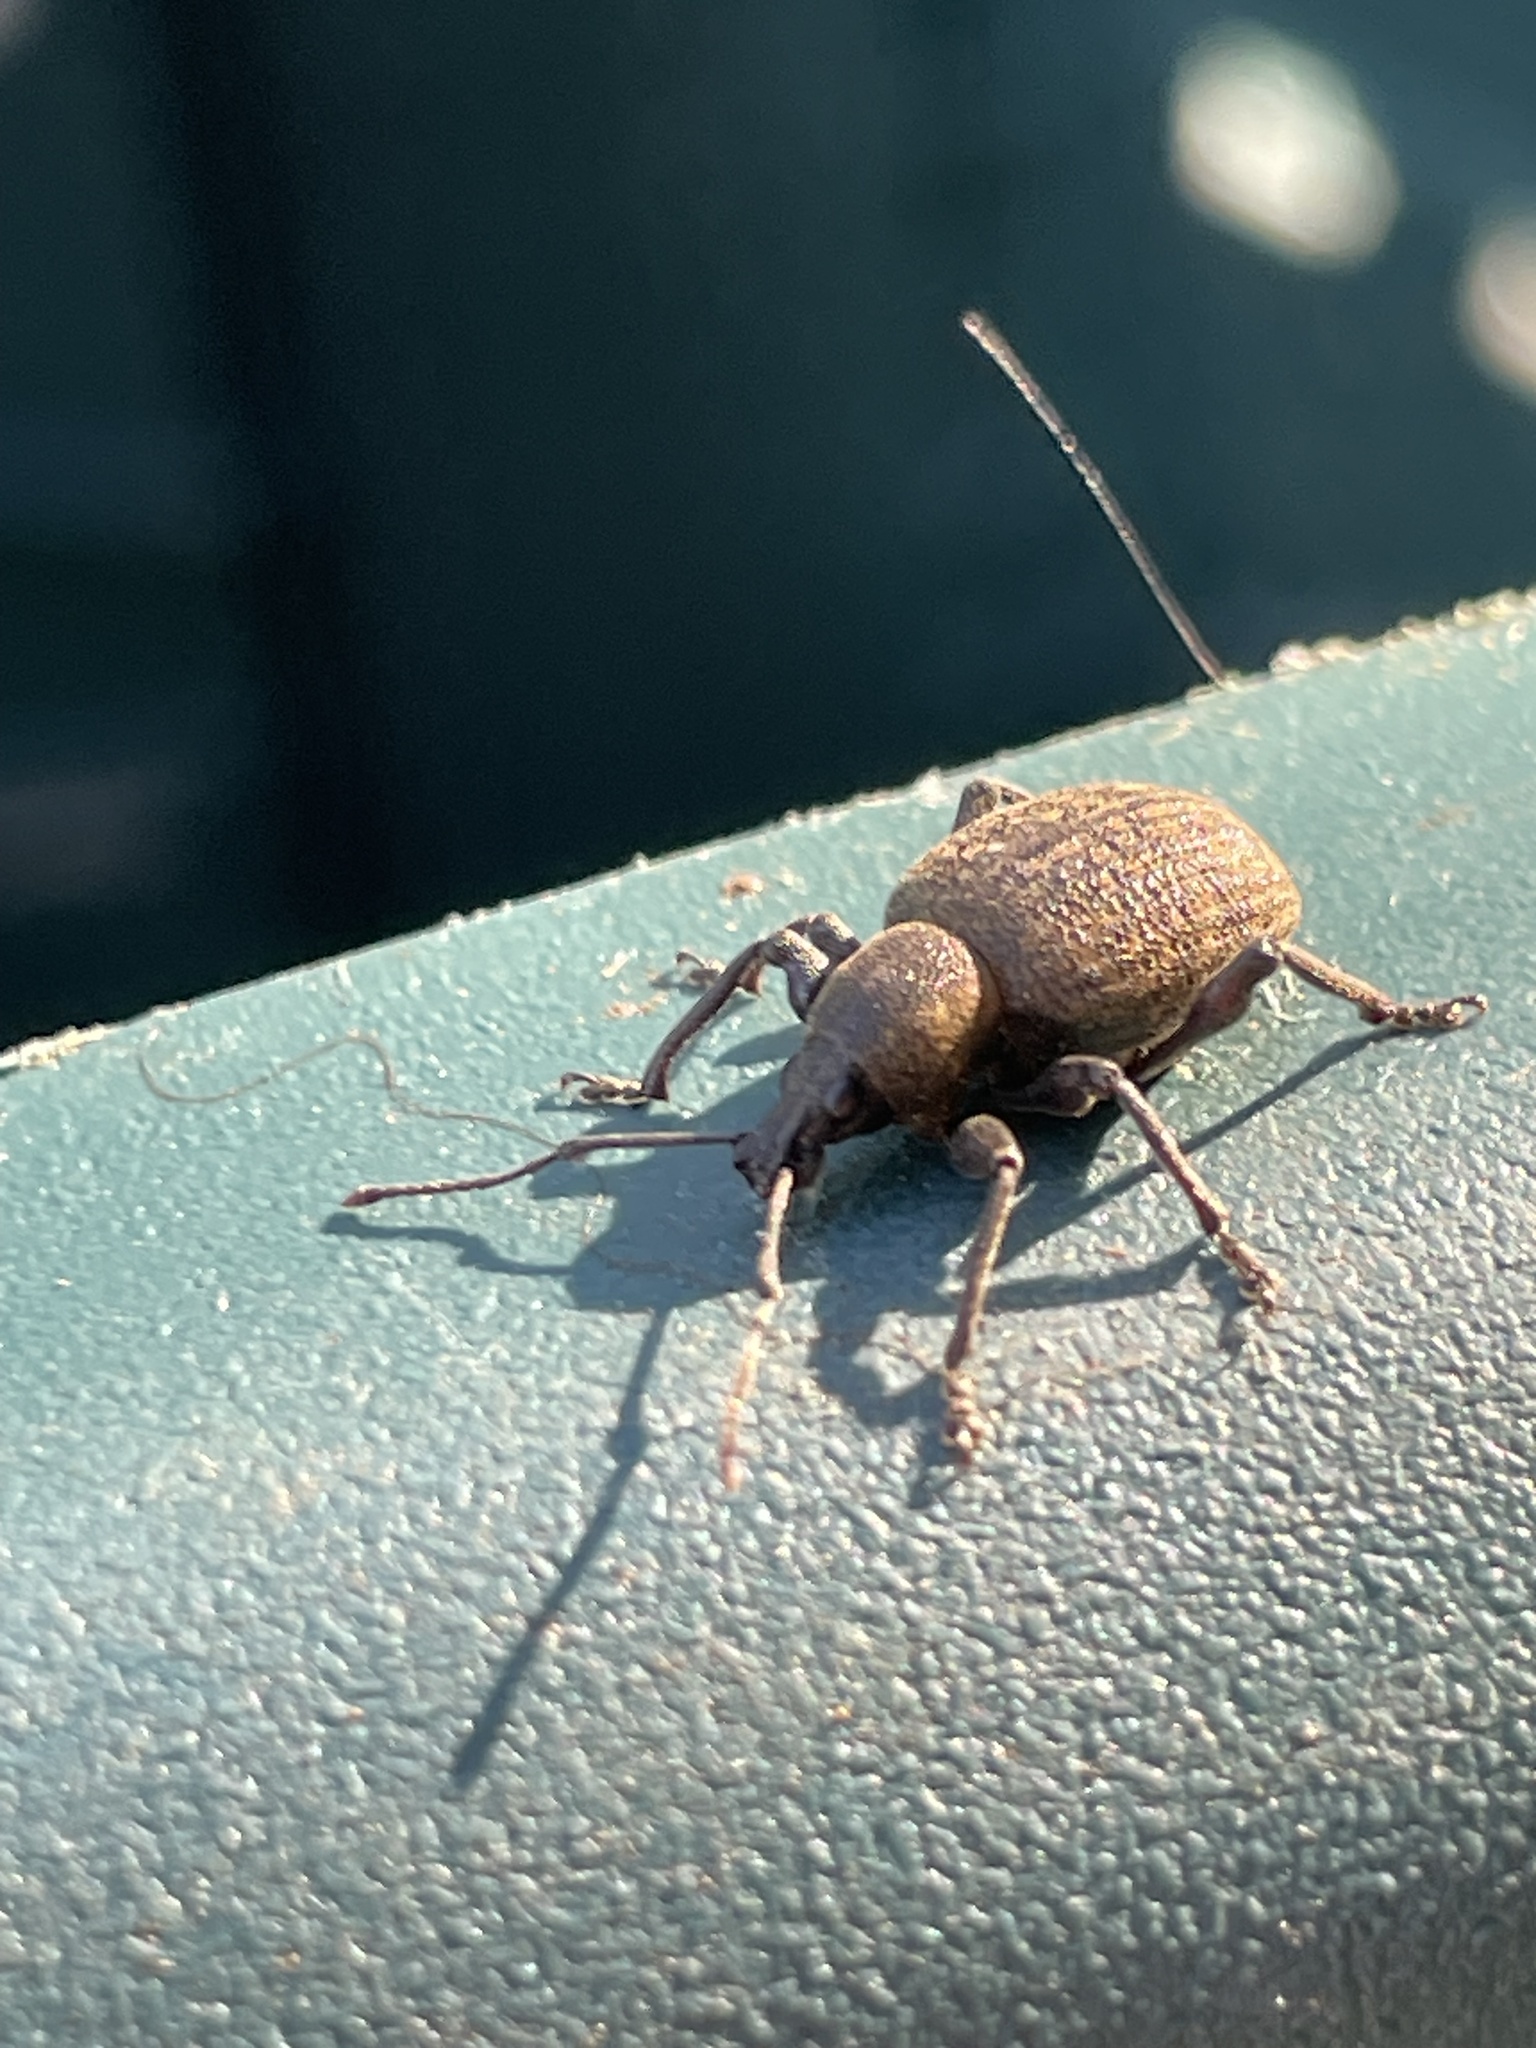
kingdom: Animalia
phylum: Arthropoda
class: Insecta
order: Coleoptera
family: Curculionidae
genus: Otiorhynchus
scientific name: Otiorhynchus armadillo
